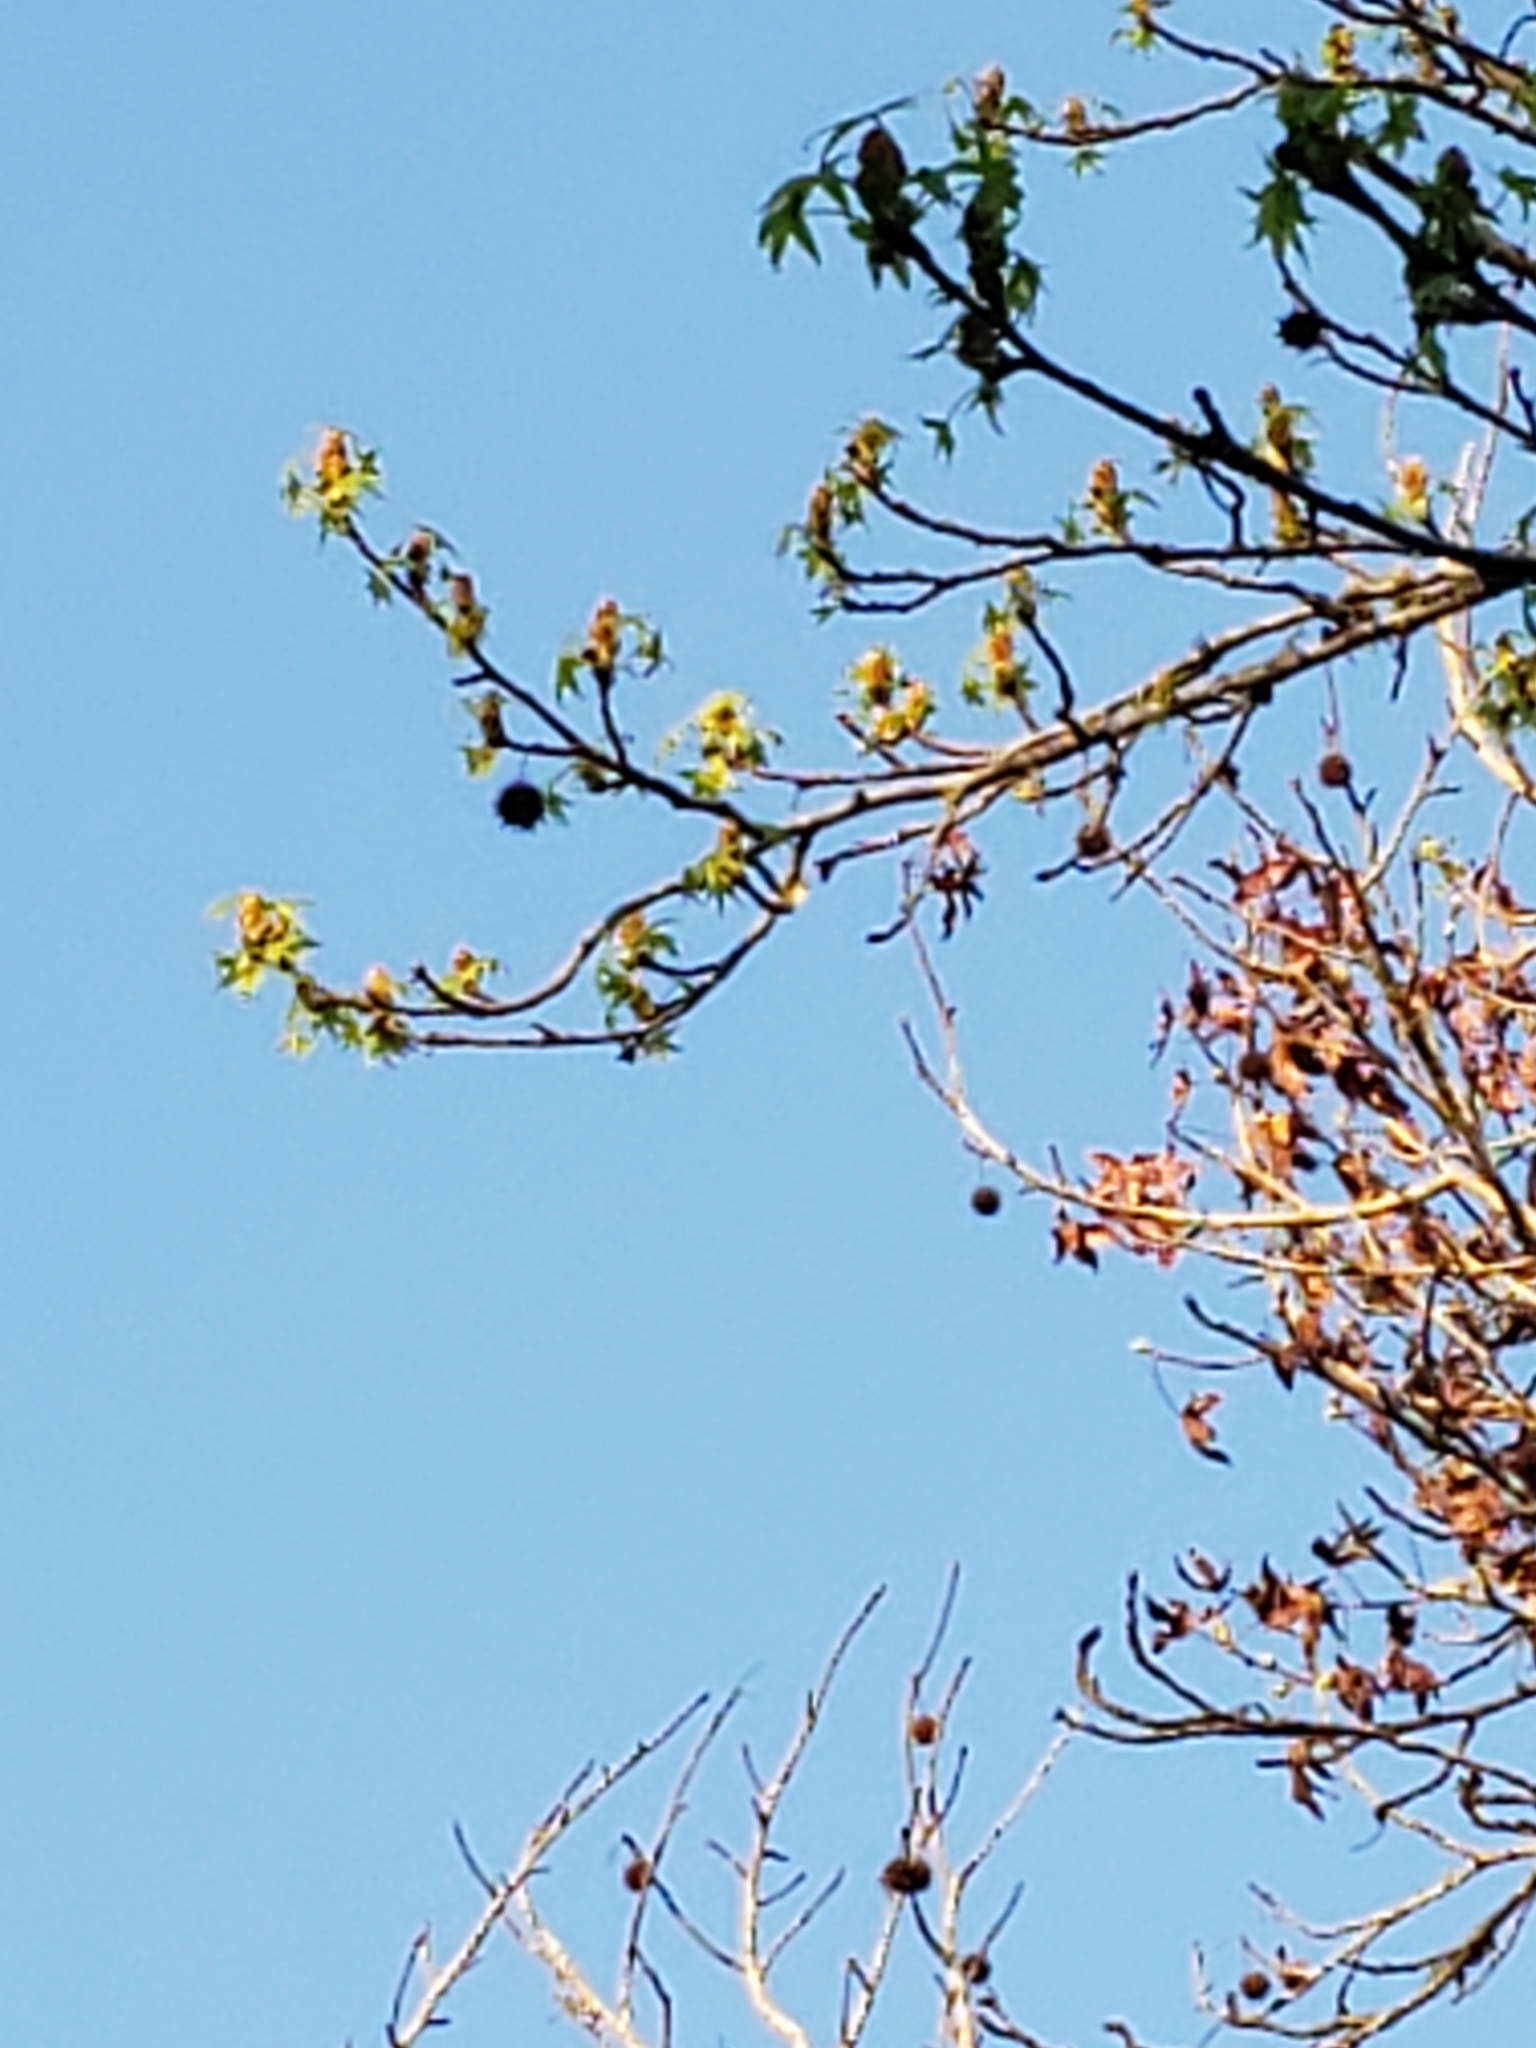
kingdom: Plantae
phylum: Tracheophyta
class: Magnoliopsida
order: Saxifragales
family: Altingiaceae
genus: Liquidambar
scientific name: Liquidambar styraciflua
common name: Sweet gum
